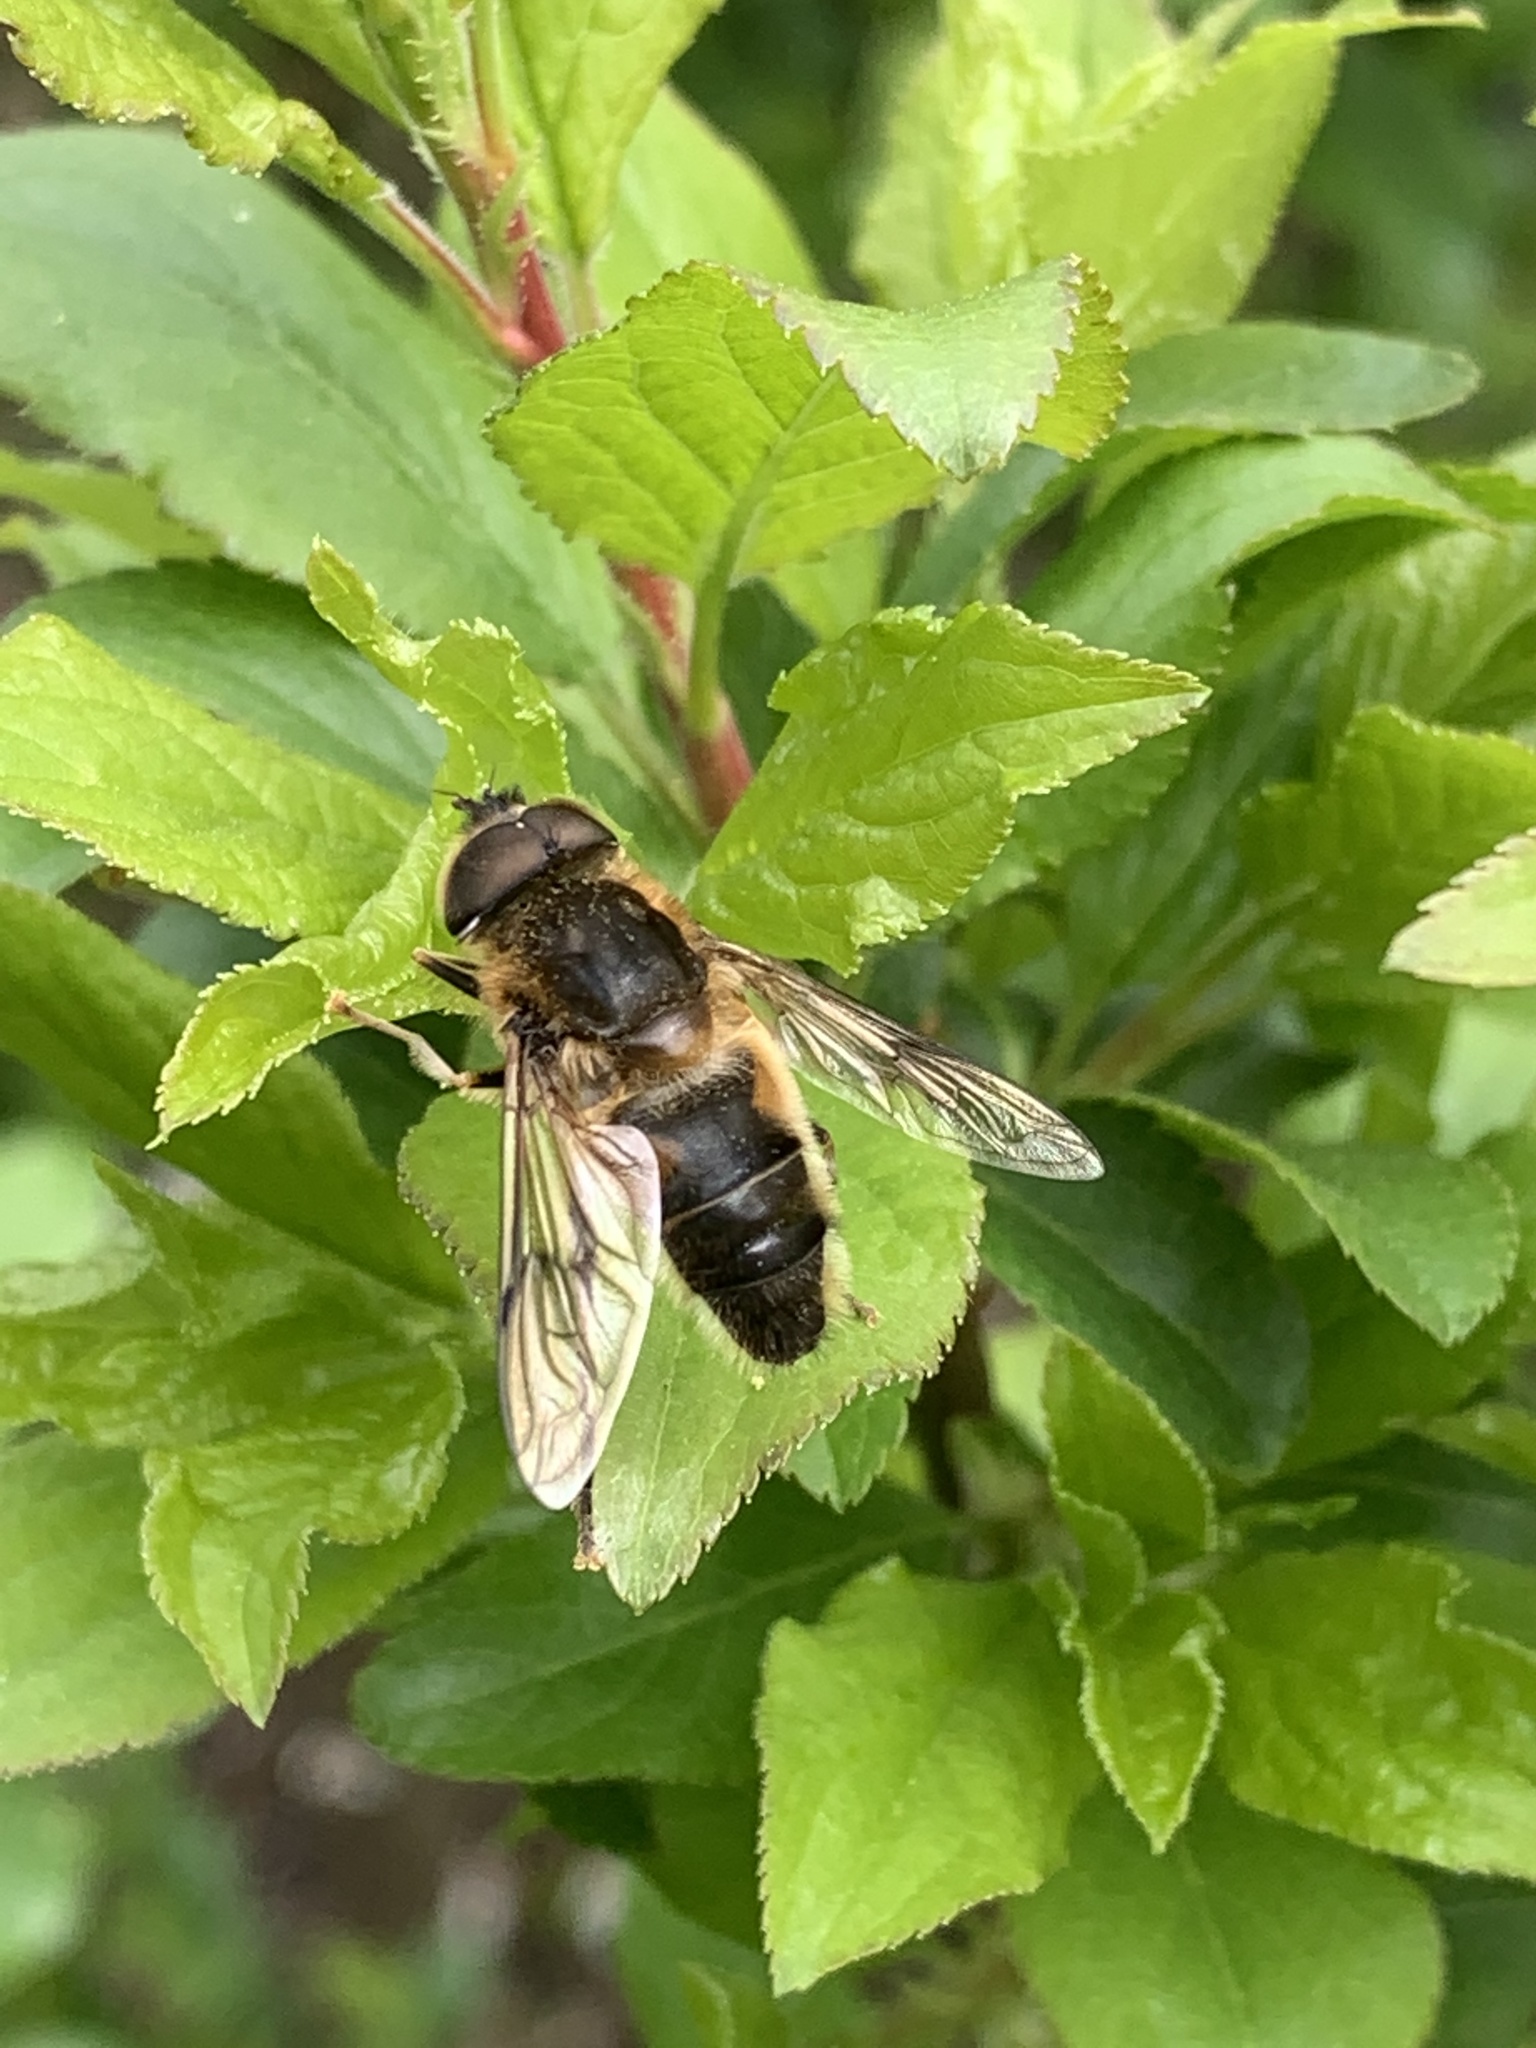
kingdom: Animalia
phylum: Arthropoda
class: Insecta
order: Diptera
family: Syrphidae
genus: Eristalis
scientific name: Eristalis pertinax
